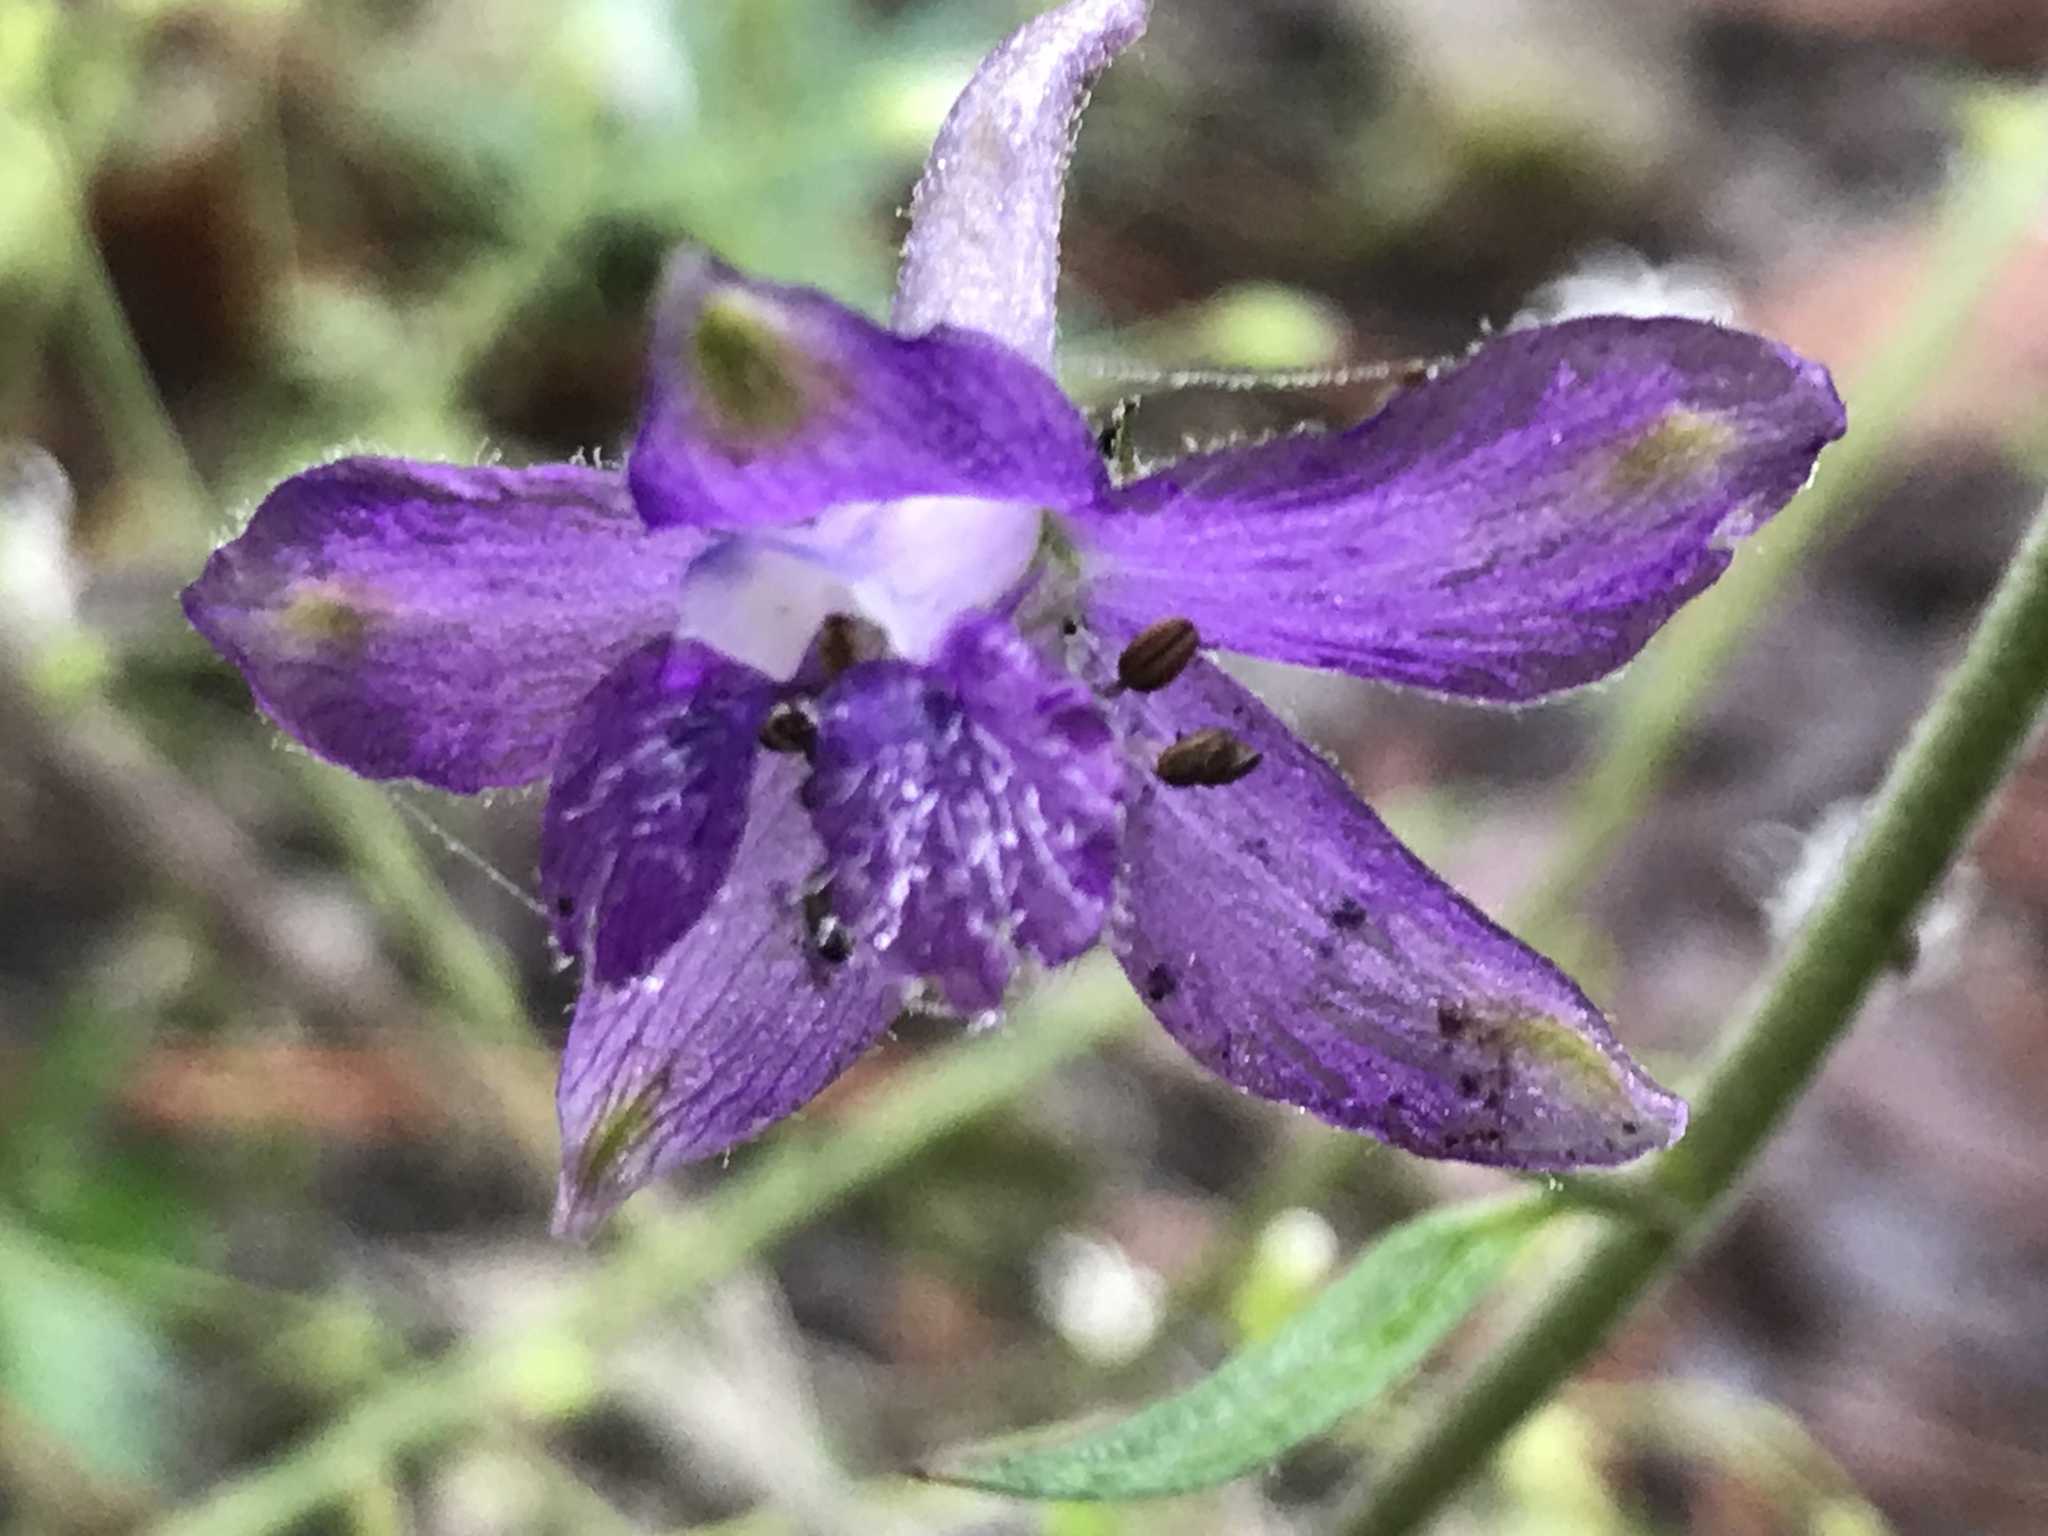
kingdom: Plantae
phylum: Tracheophyta
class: Magnoliopsida
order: Ranunculales
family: Ranunculaceae
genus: Delphinium
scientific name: Delphinium madrense
